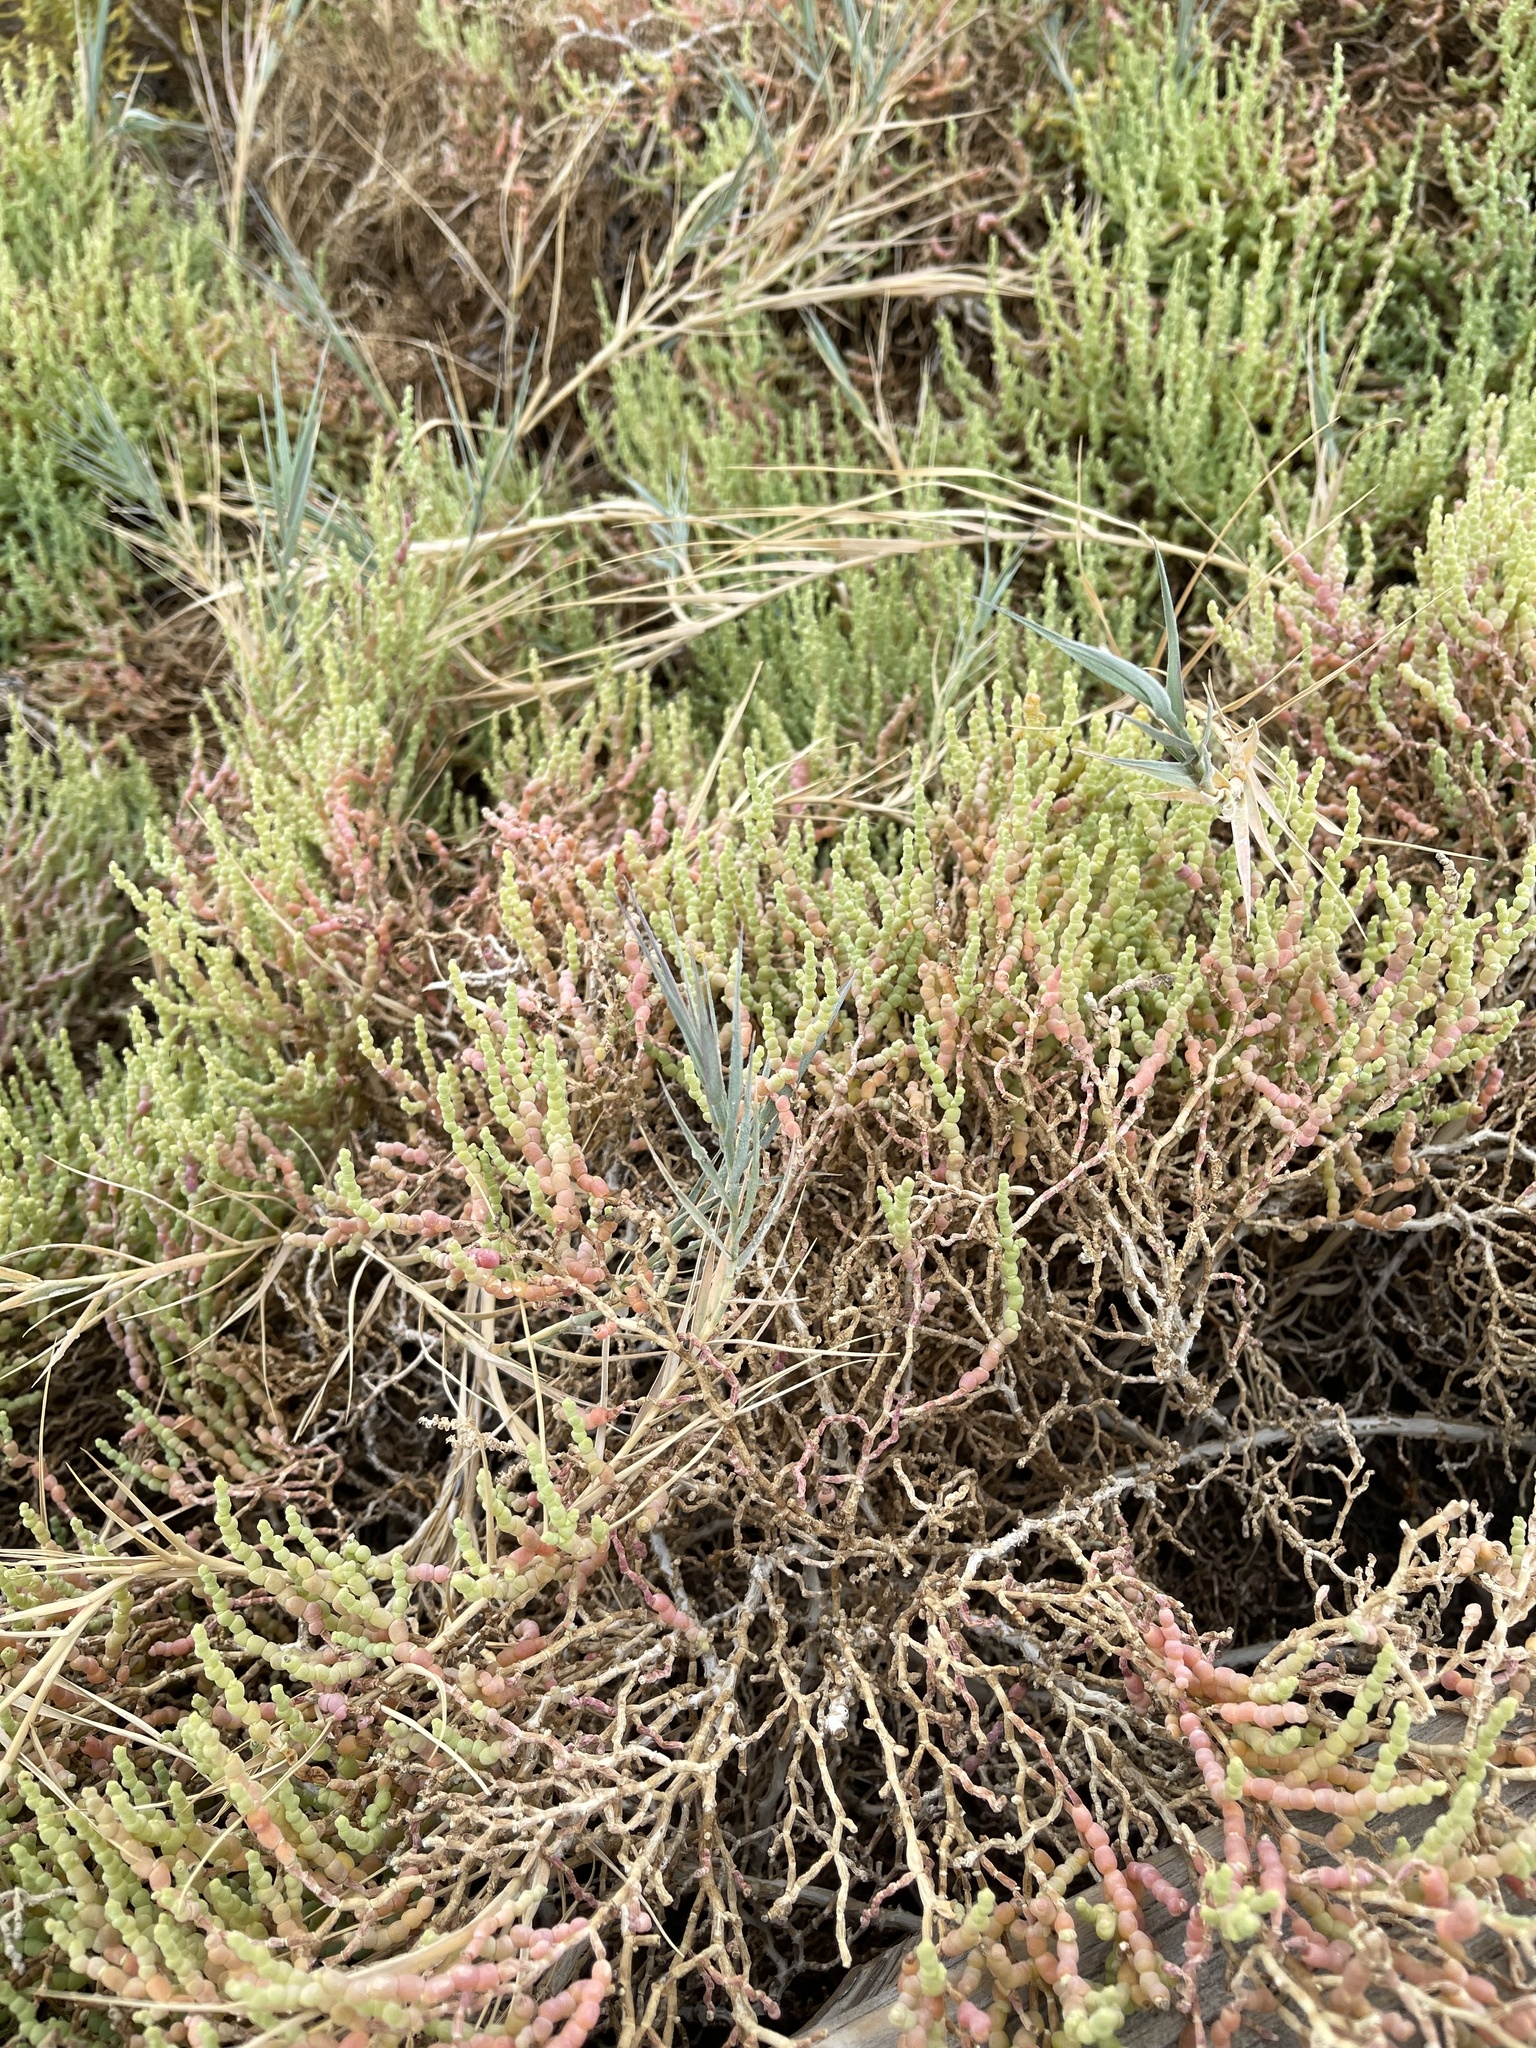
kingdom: Plantae
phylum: Tracheophyta
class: Liliopsida
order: Poales
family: Poaceae
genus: Distichlis
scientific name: Distichlis spicata
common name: Saltgrass
